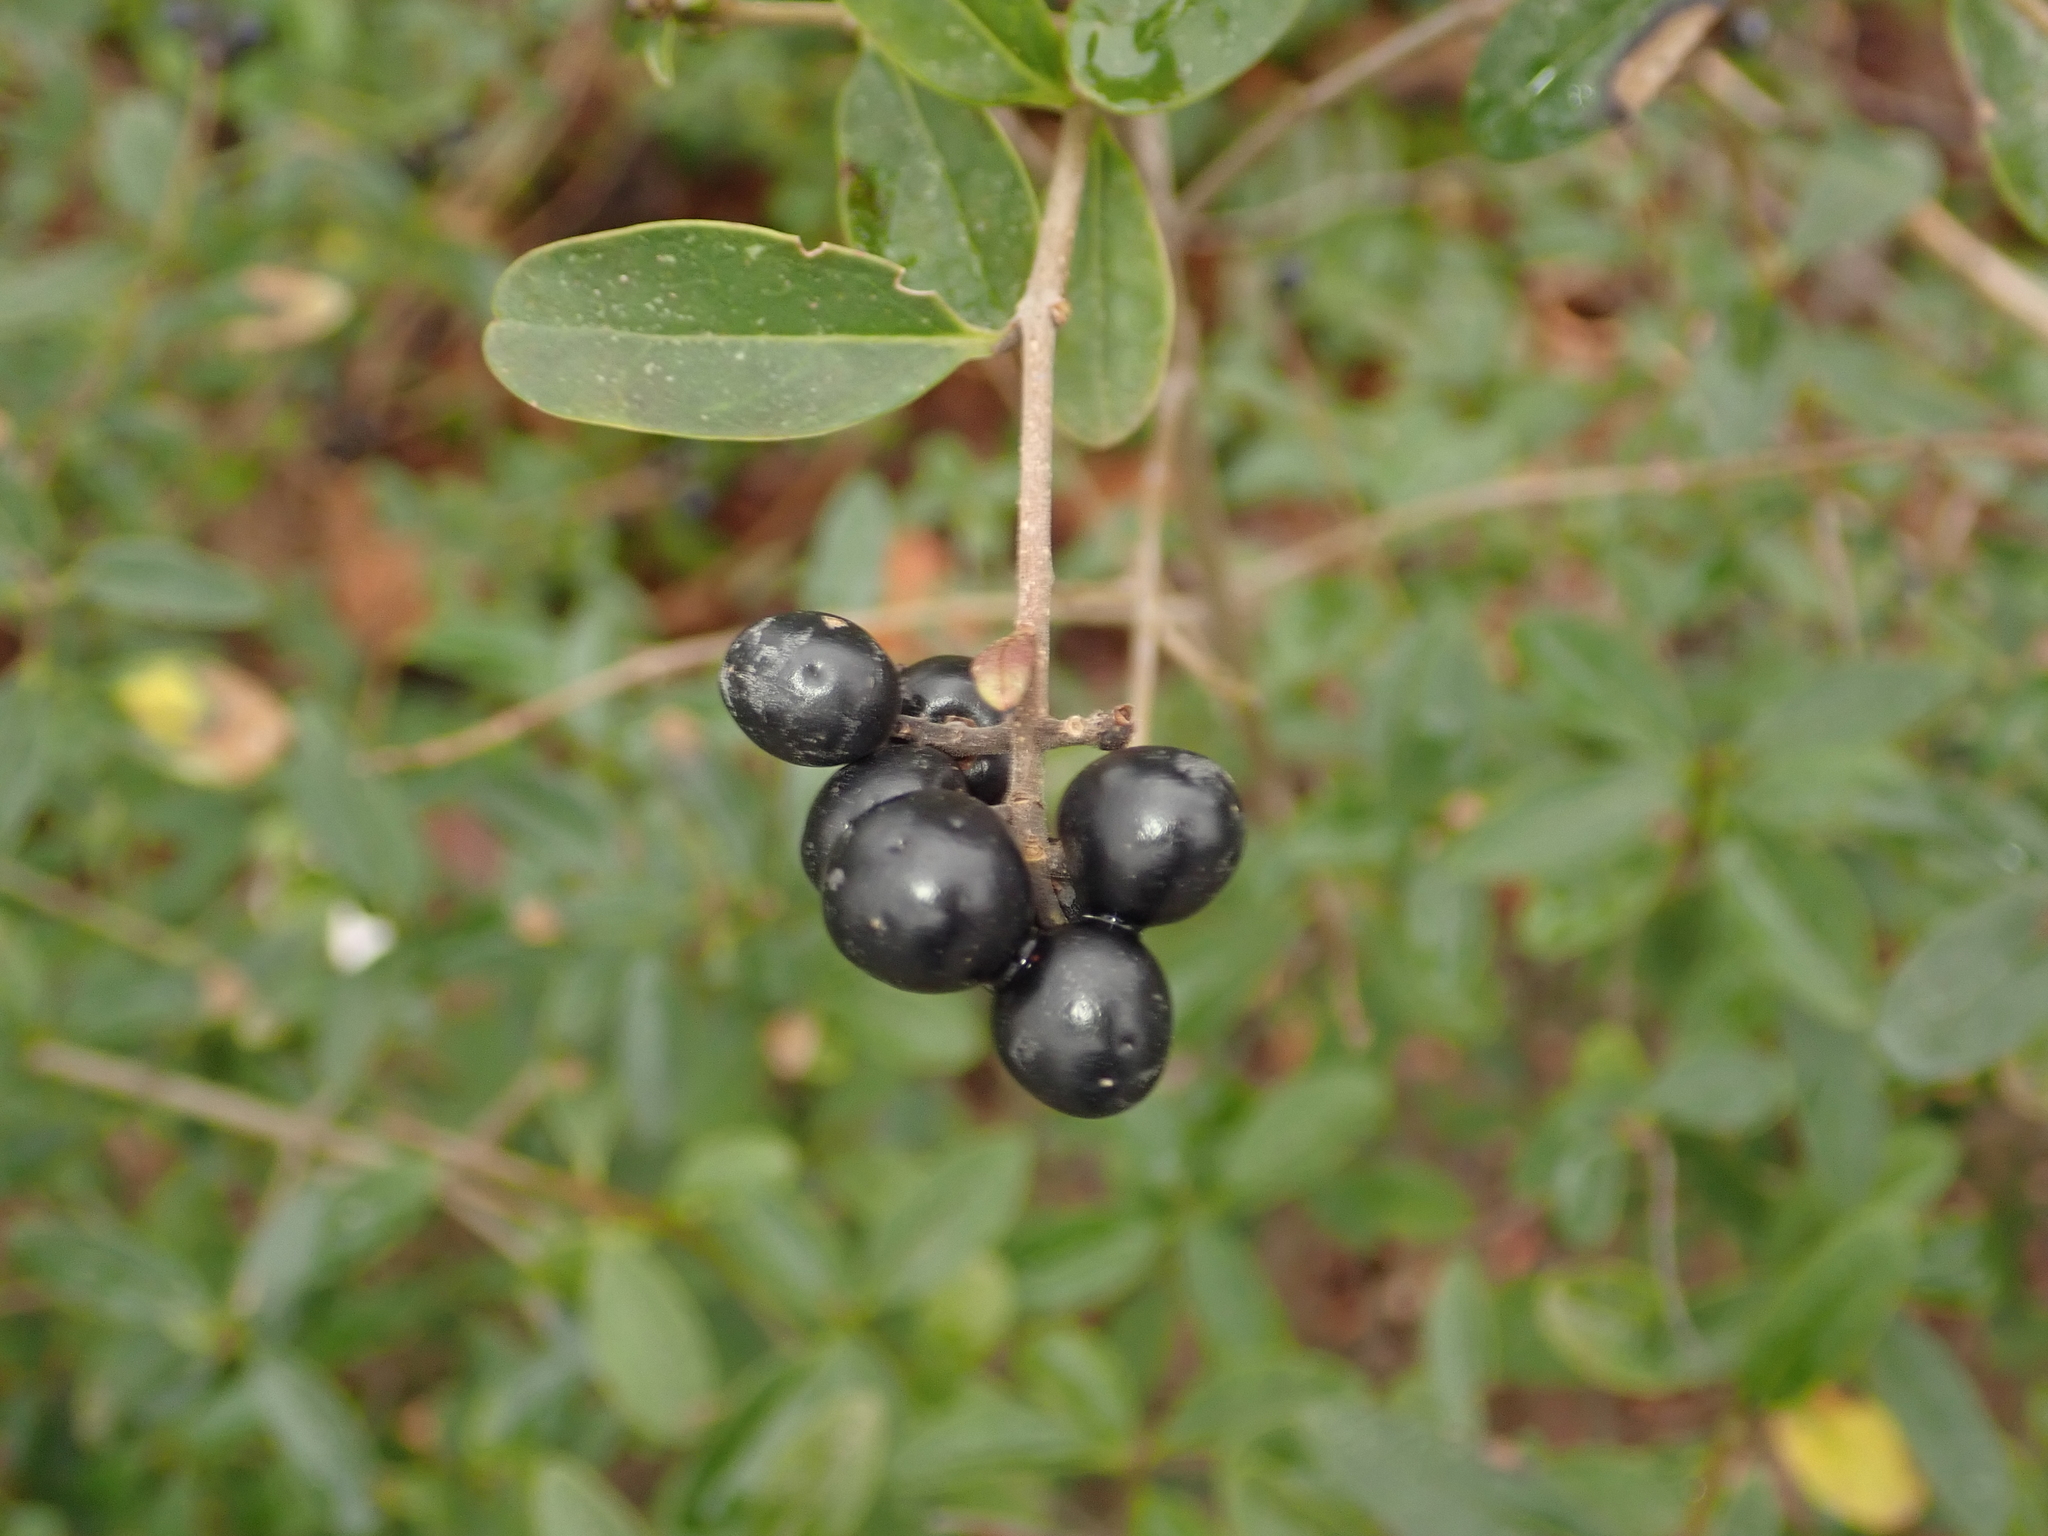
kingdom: Plantae
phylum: Tracheophyta
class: Magnoliopsida
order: Lamiales
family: Oleaceae
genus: Ligustrum
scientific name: Ligustrum vulgare
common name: Wild privet
